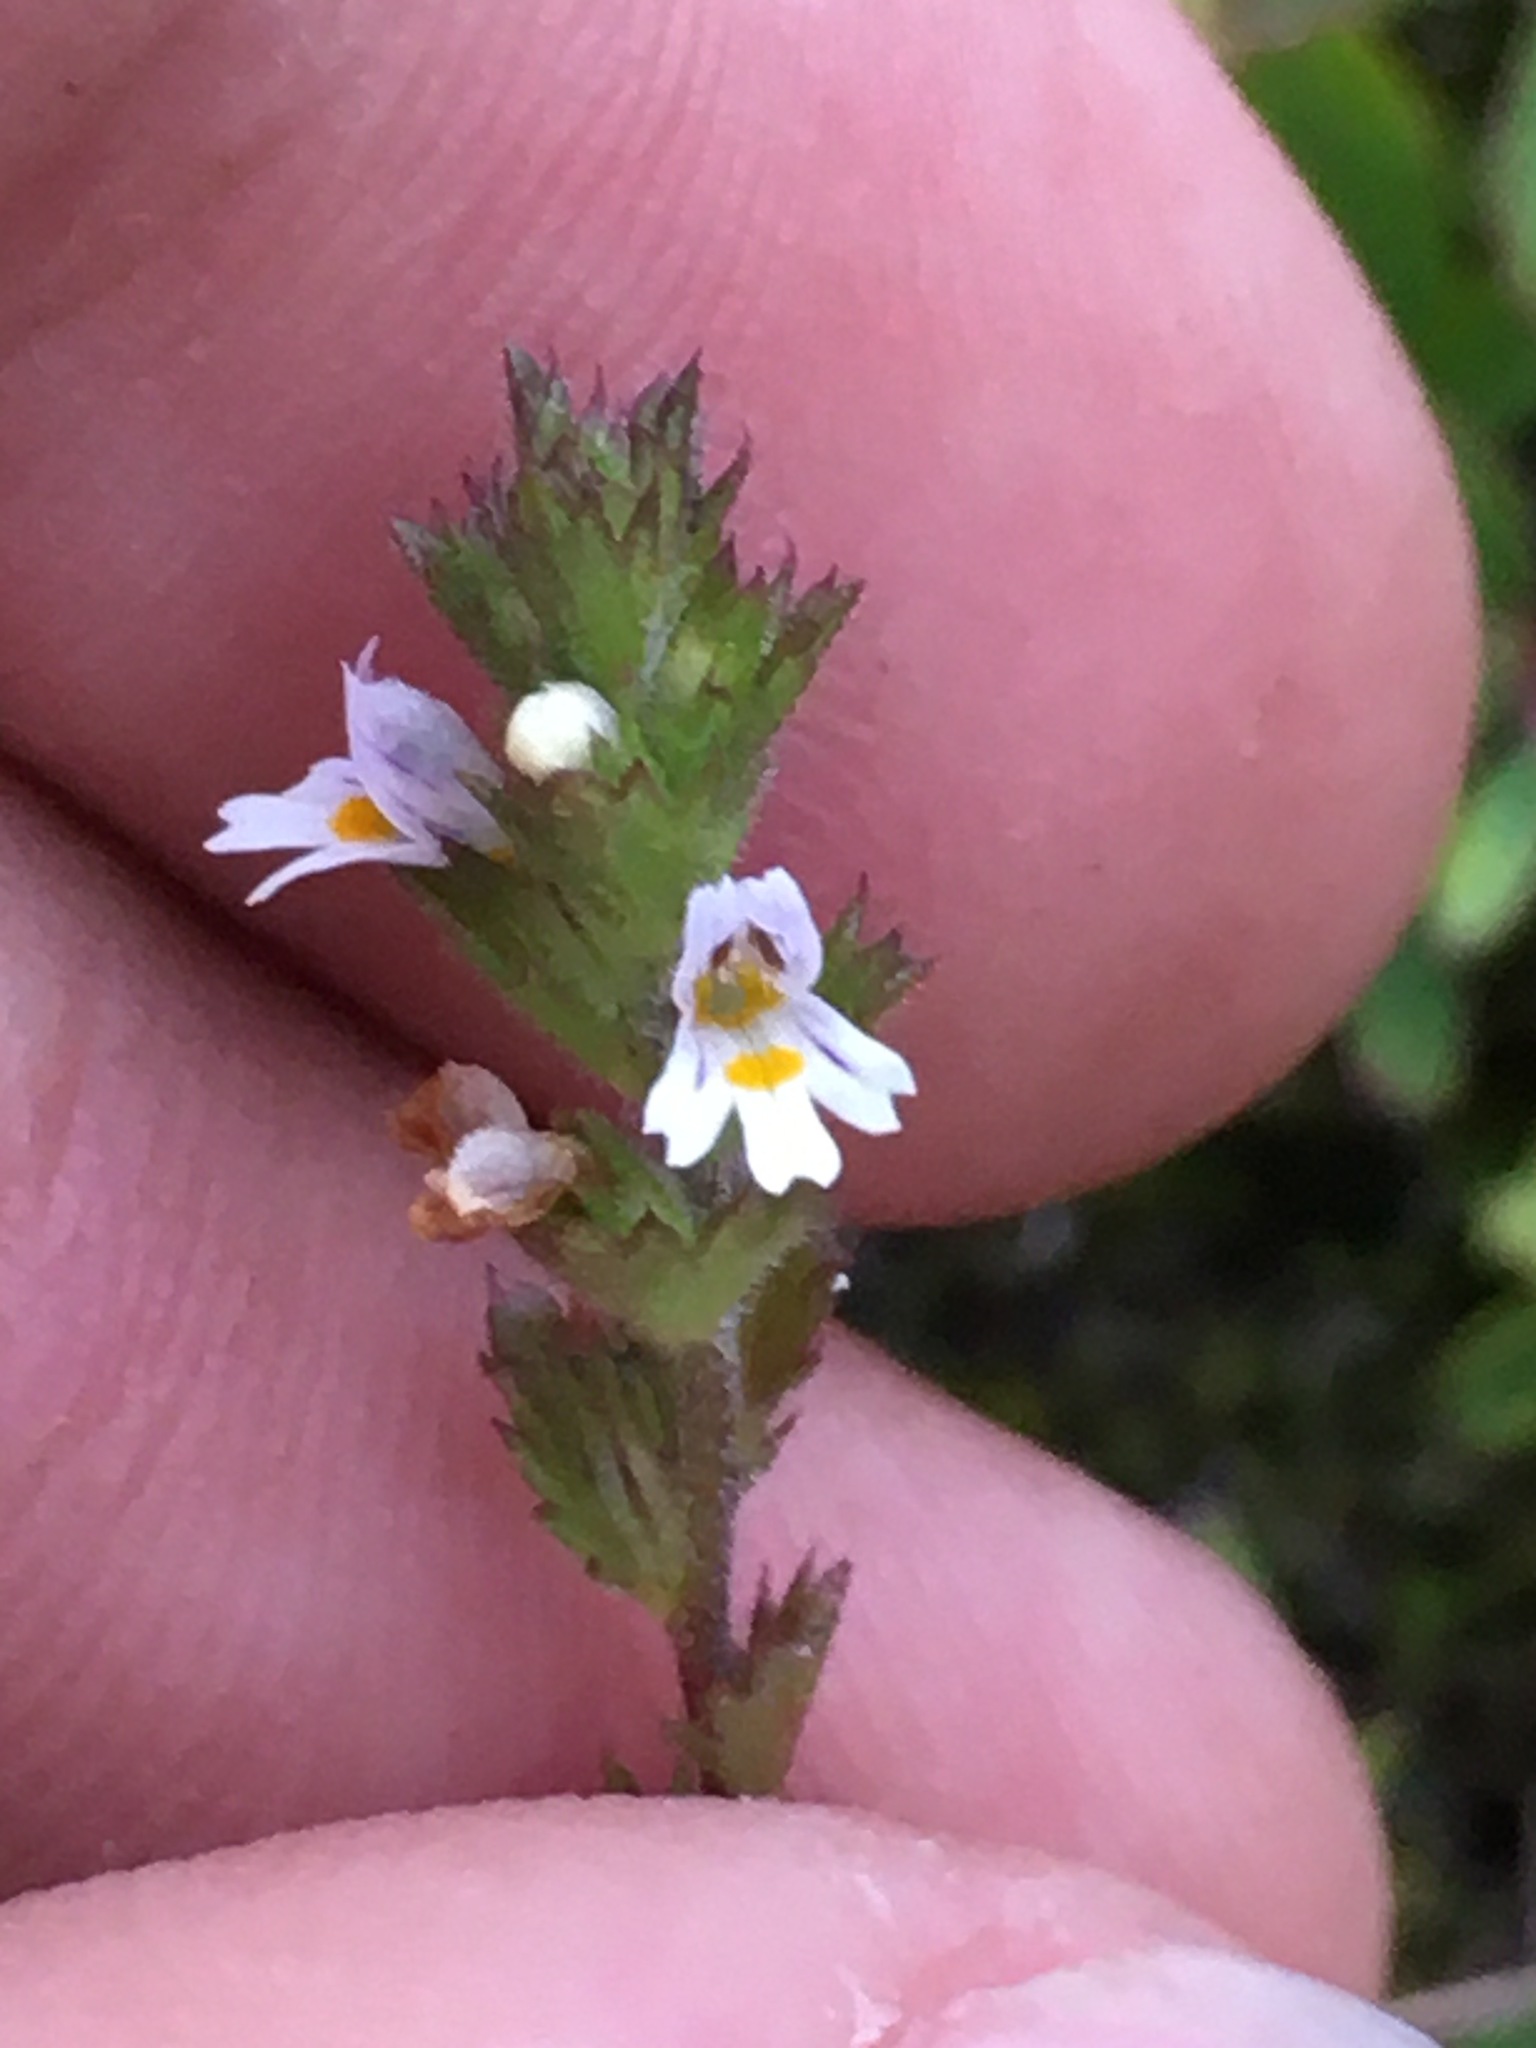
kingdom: Plantae
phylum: Tracheophyta
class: Magnoliopsida
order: Lamiales
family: Orobanchaceae
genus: Euphrasia
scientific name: Euphrasia hudsoniana
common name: Hudson bay eyebright
